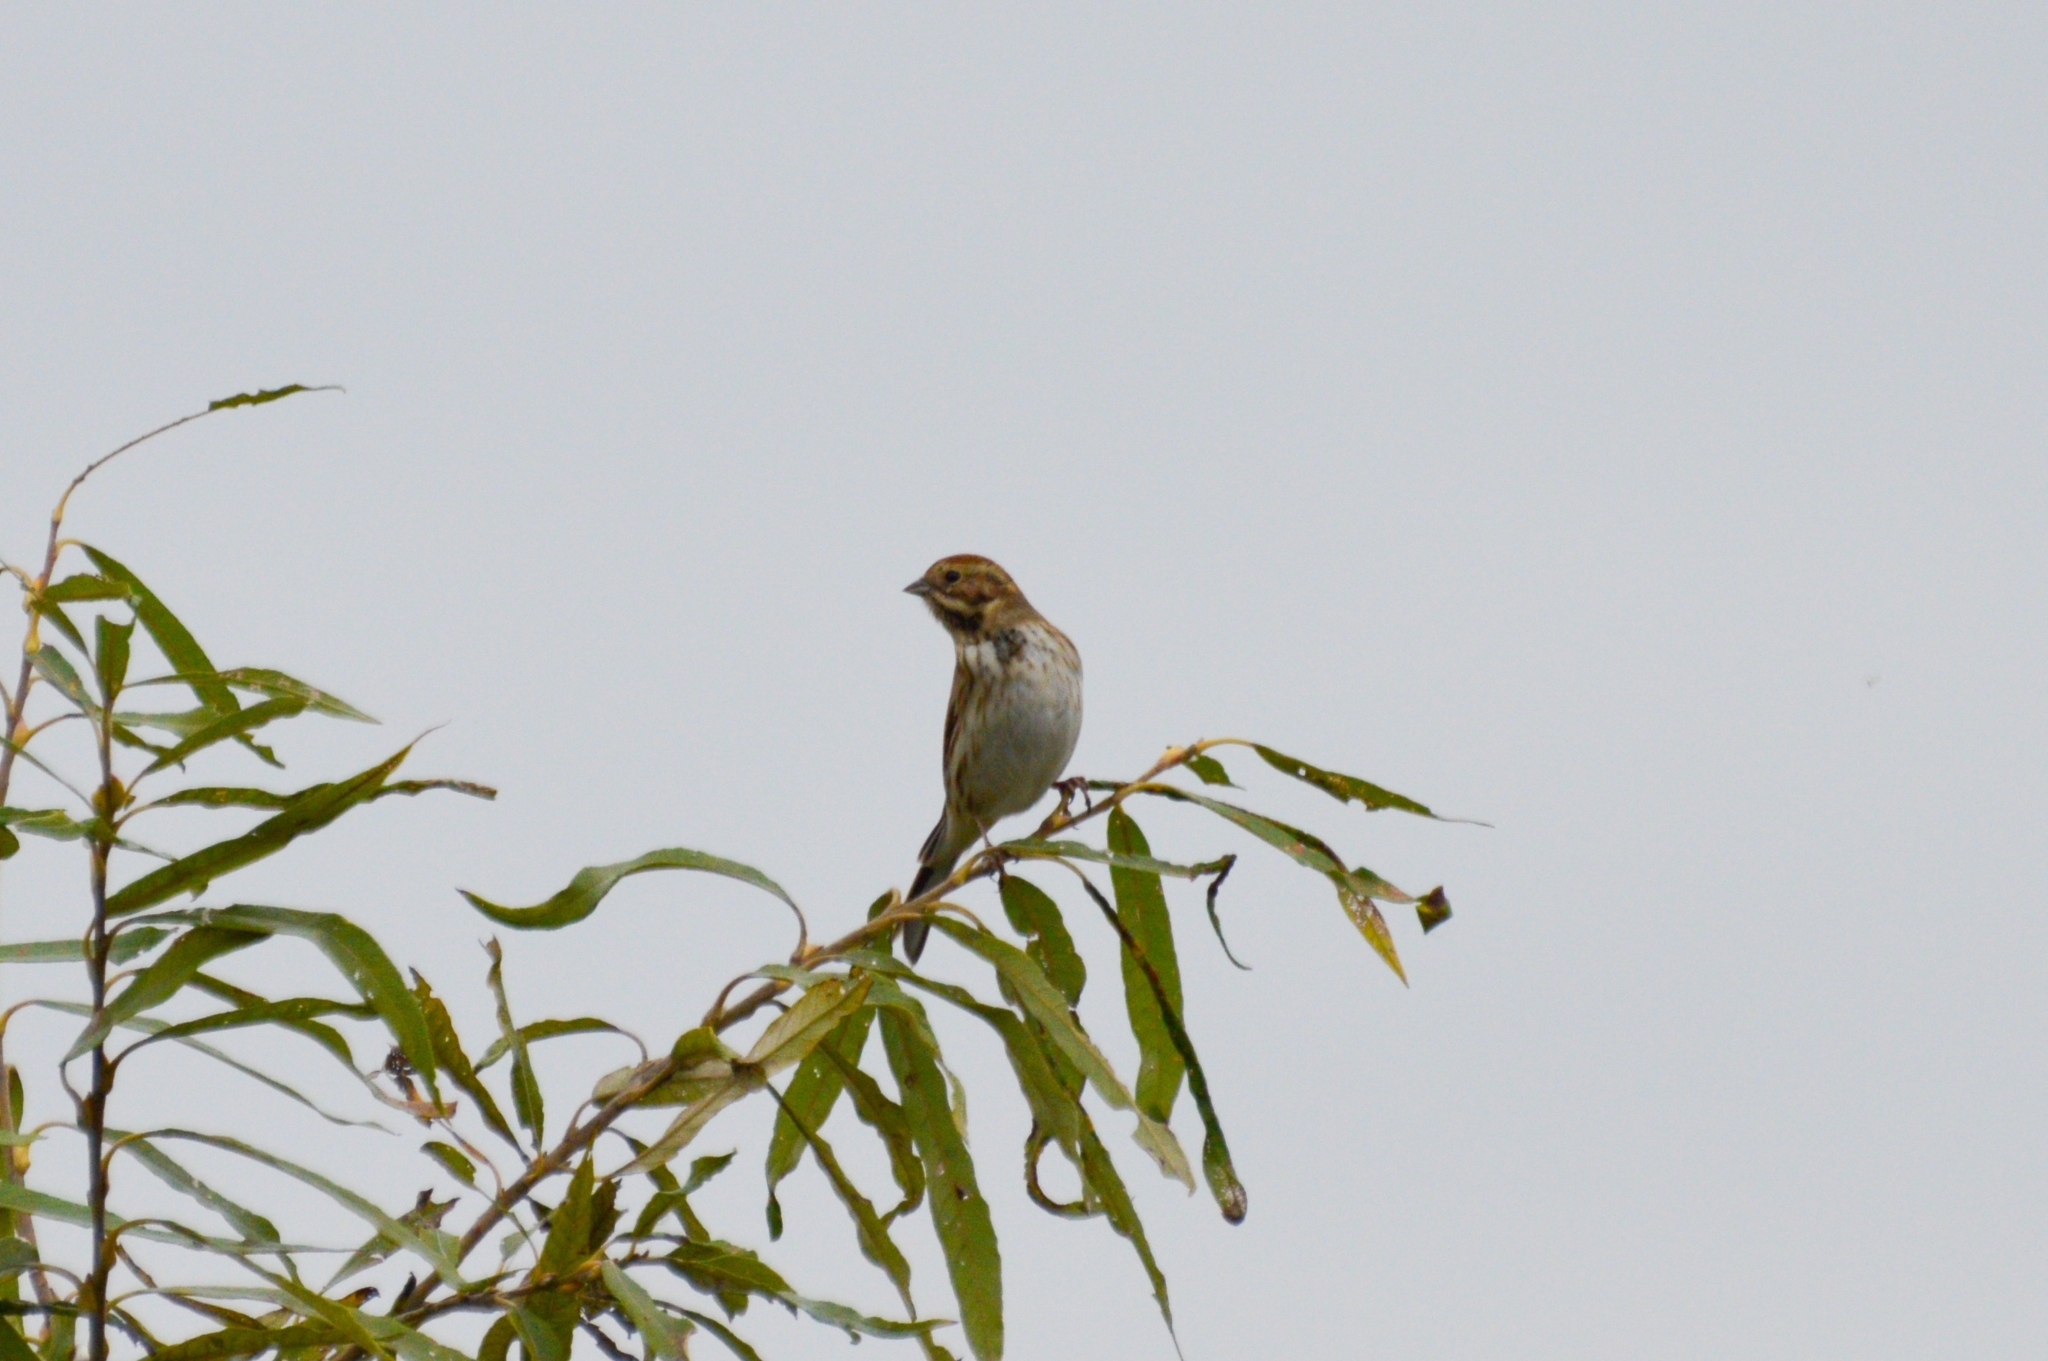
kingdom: Animalia
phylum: Chordata
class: Aves
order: Passeriformes
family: Emberizidae
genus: Emberiza
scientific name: Emberiza schoeniclus
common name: Reed bunting
